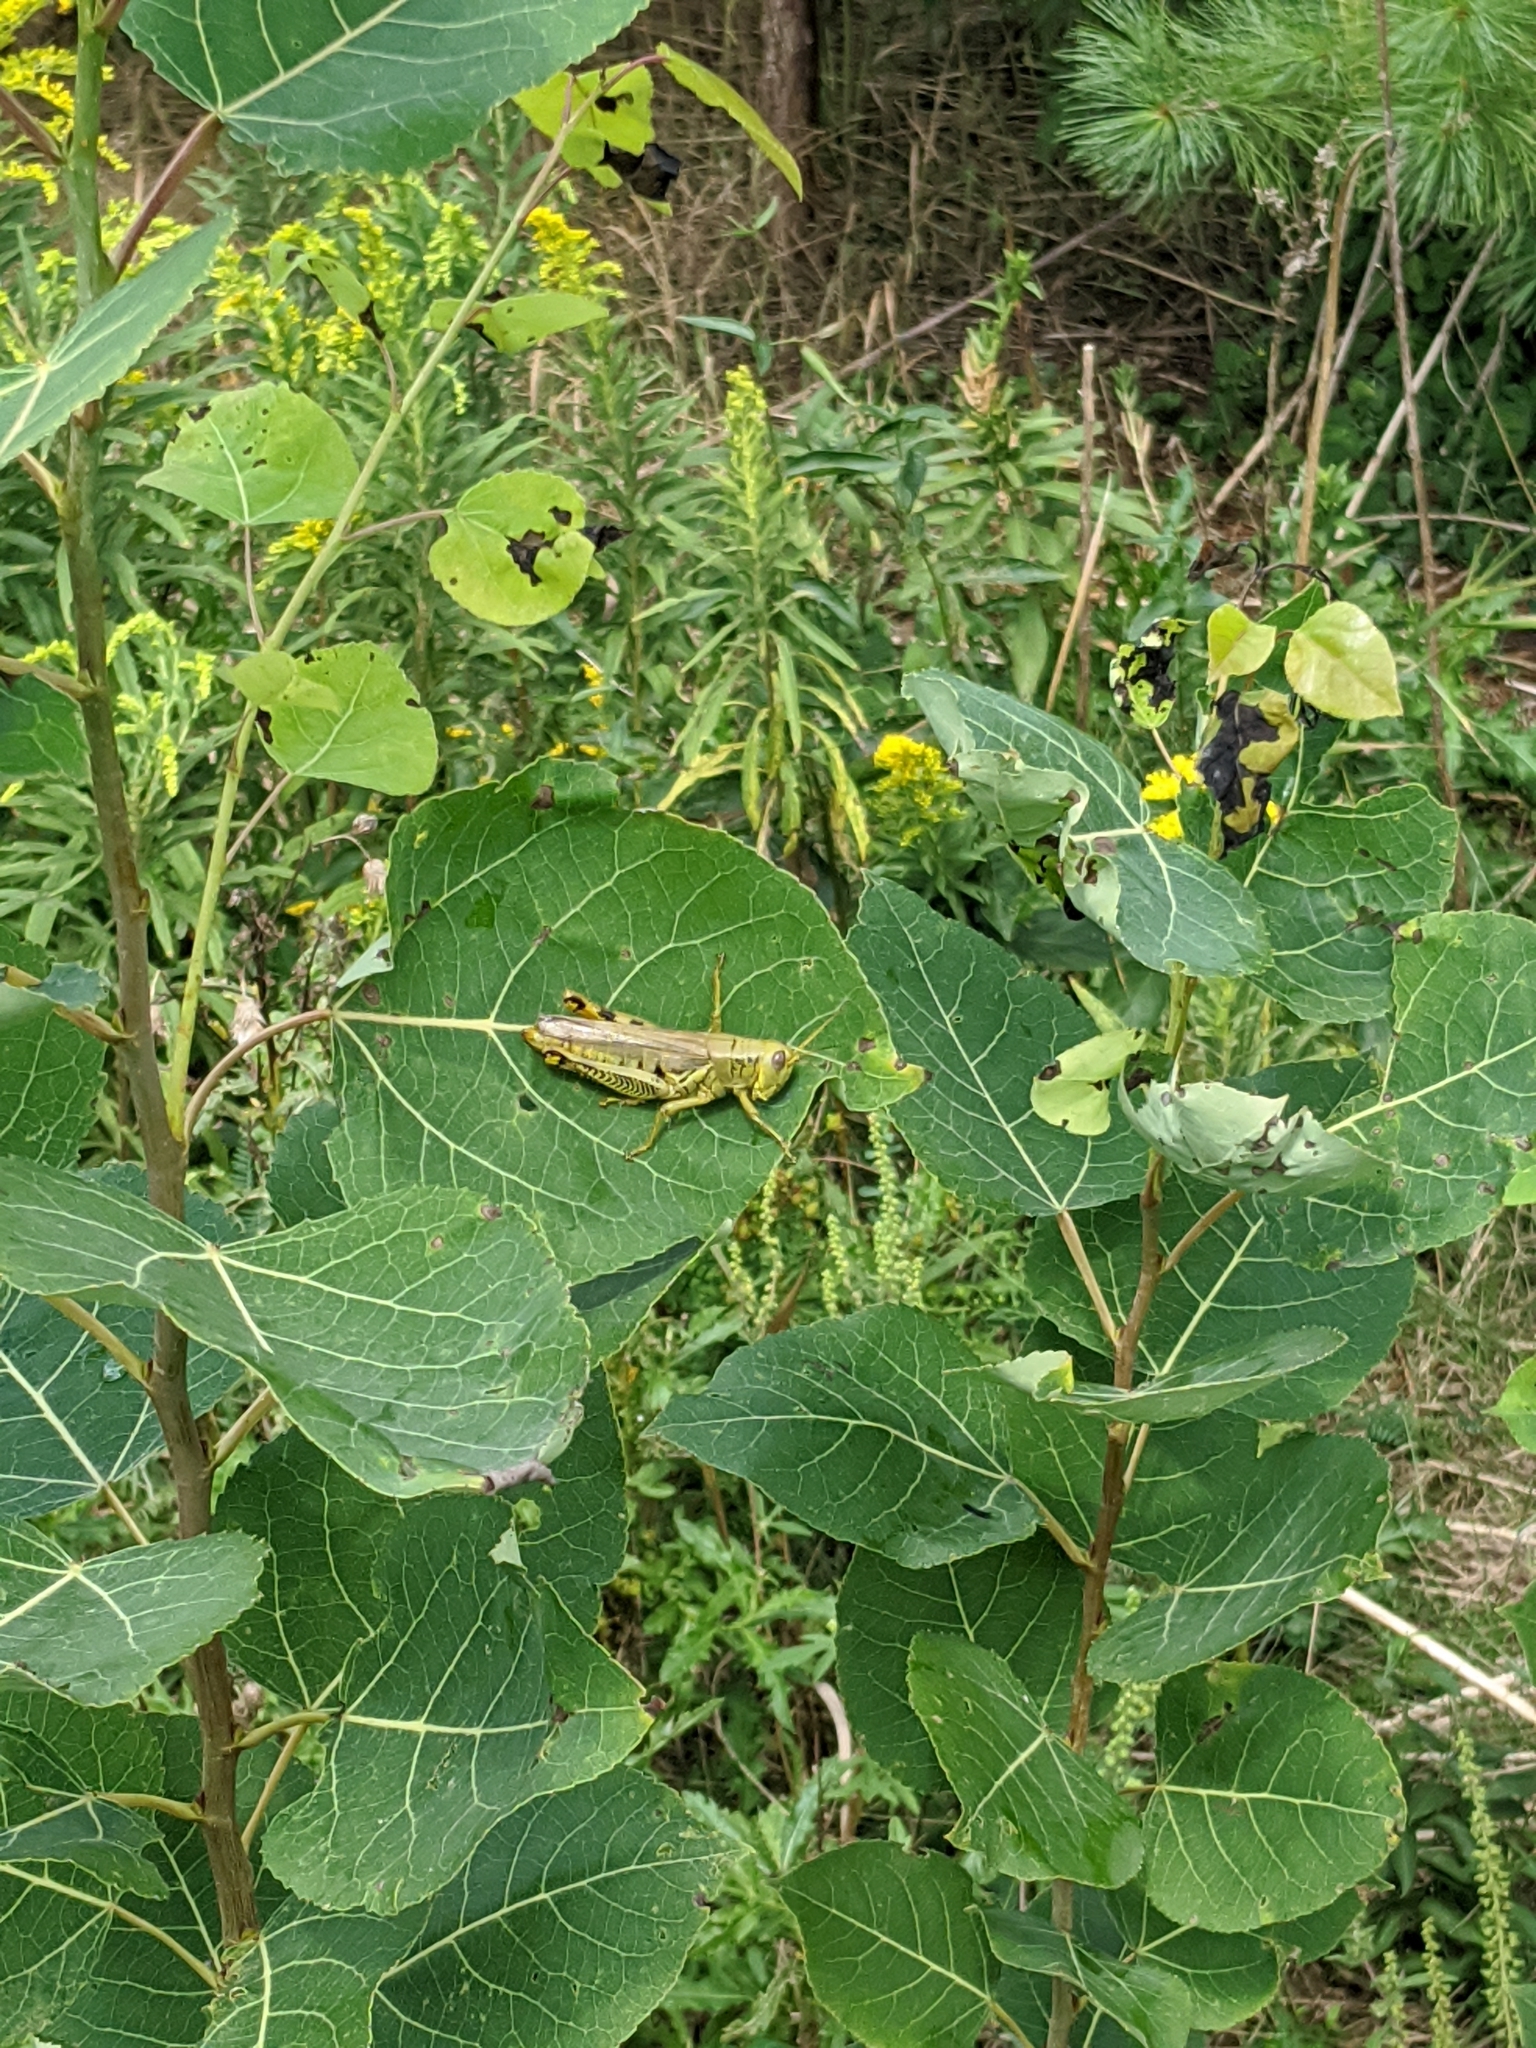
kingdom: Animalia
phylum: Arthropoda
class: Insecta
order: Orthoptera
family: Acrididae
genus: Melanoplus
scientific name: Melanoplus differentialis
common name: Differential grasshopper
